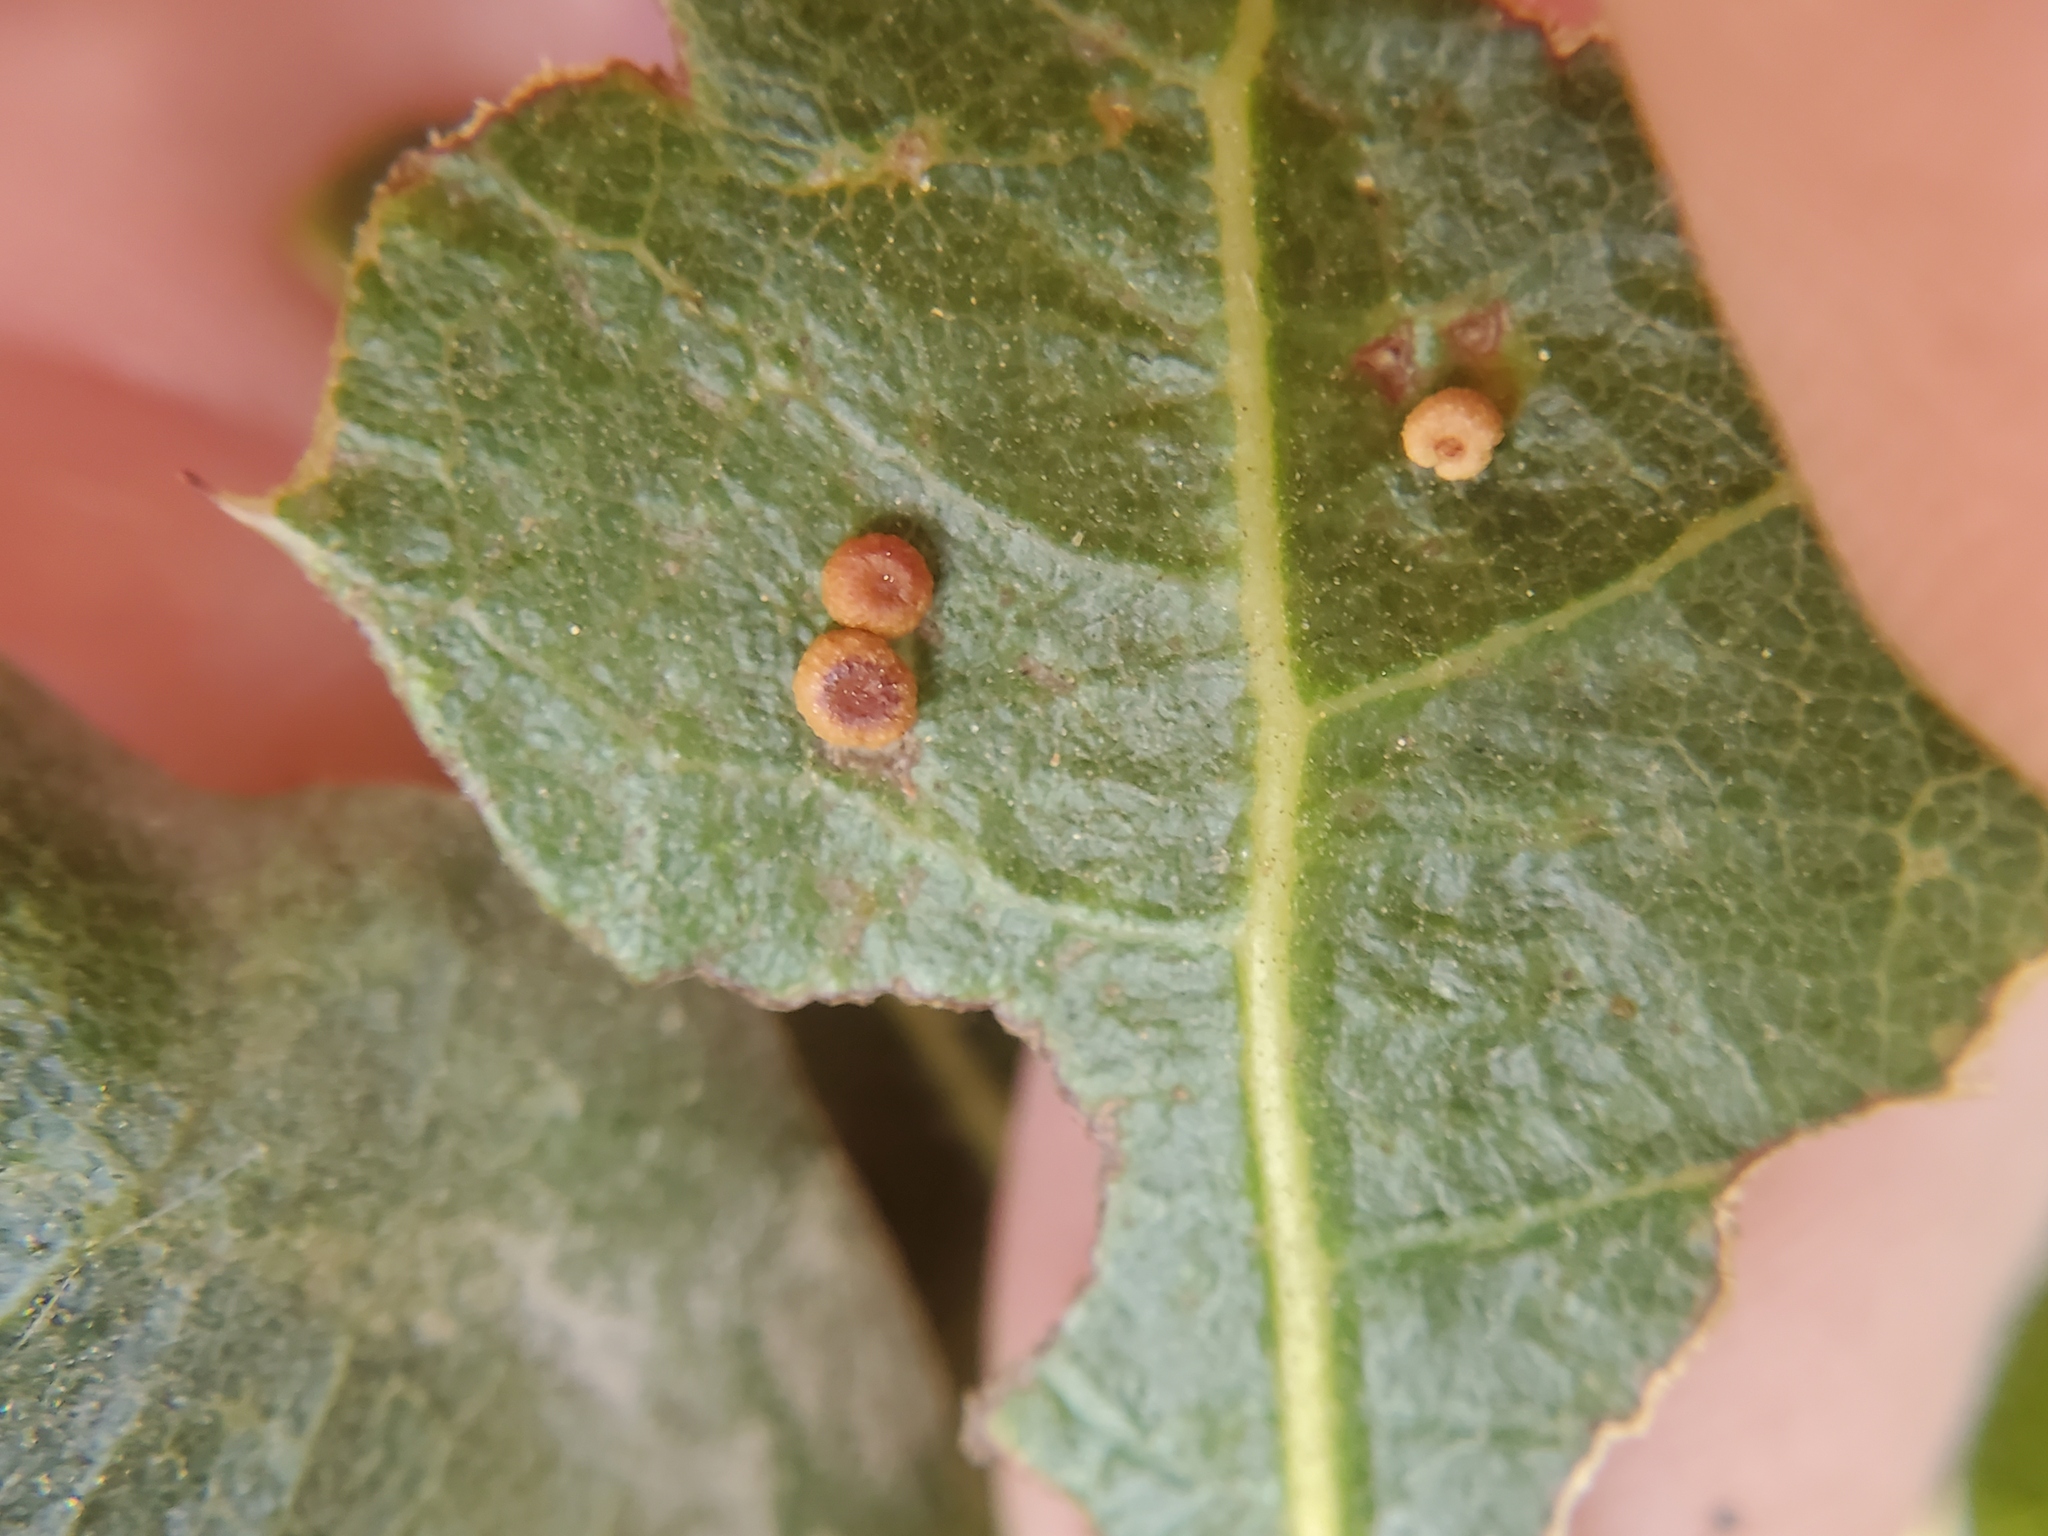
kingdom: Animalia
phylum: Arthropoda
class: Insecta
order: Hymenoptera
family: Cynipidae
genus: Dryocosmus
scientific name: Dryocosmus
